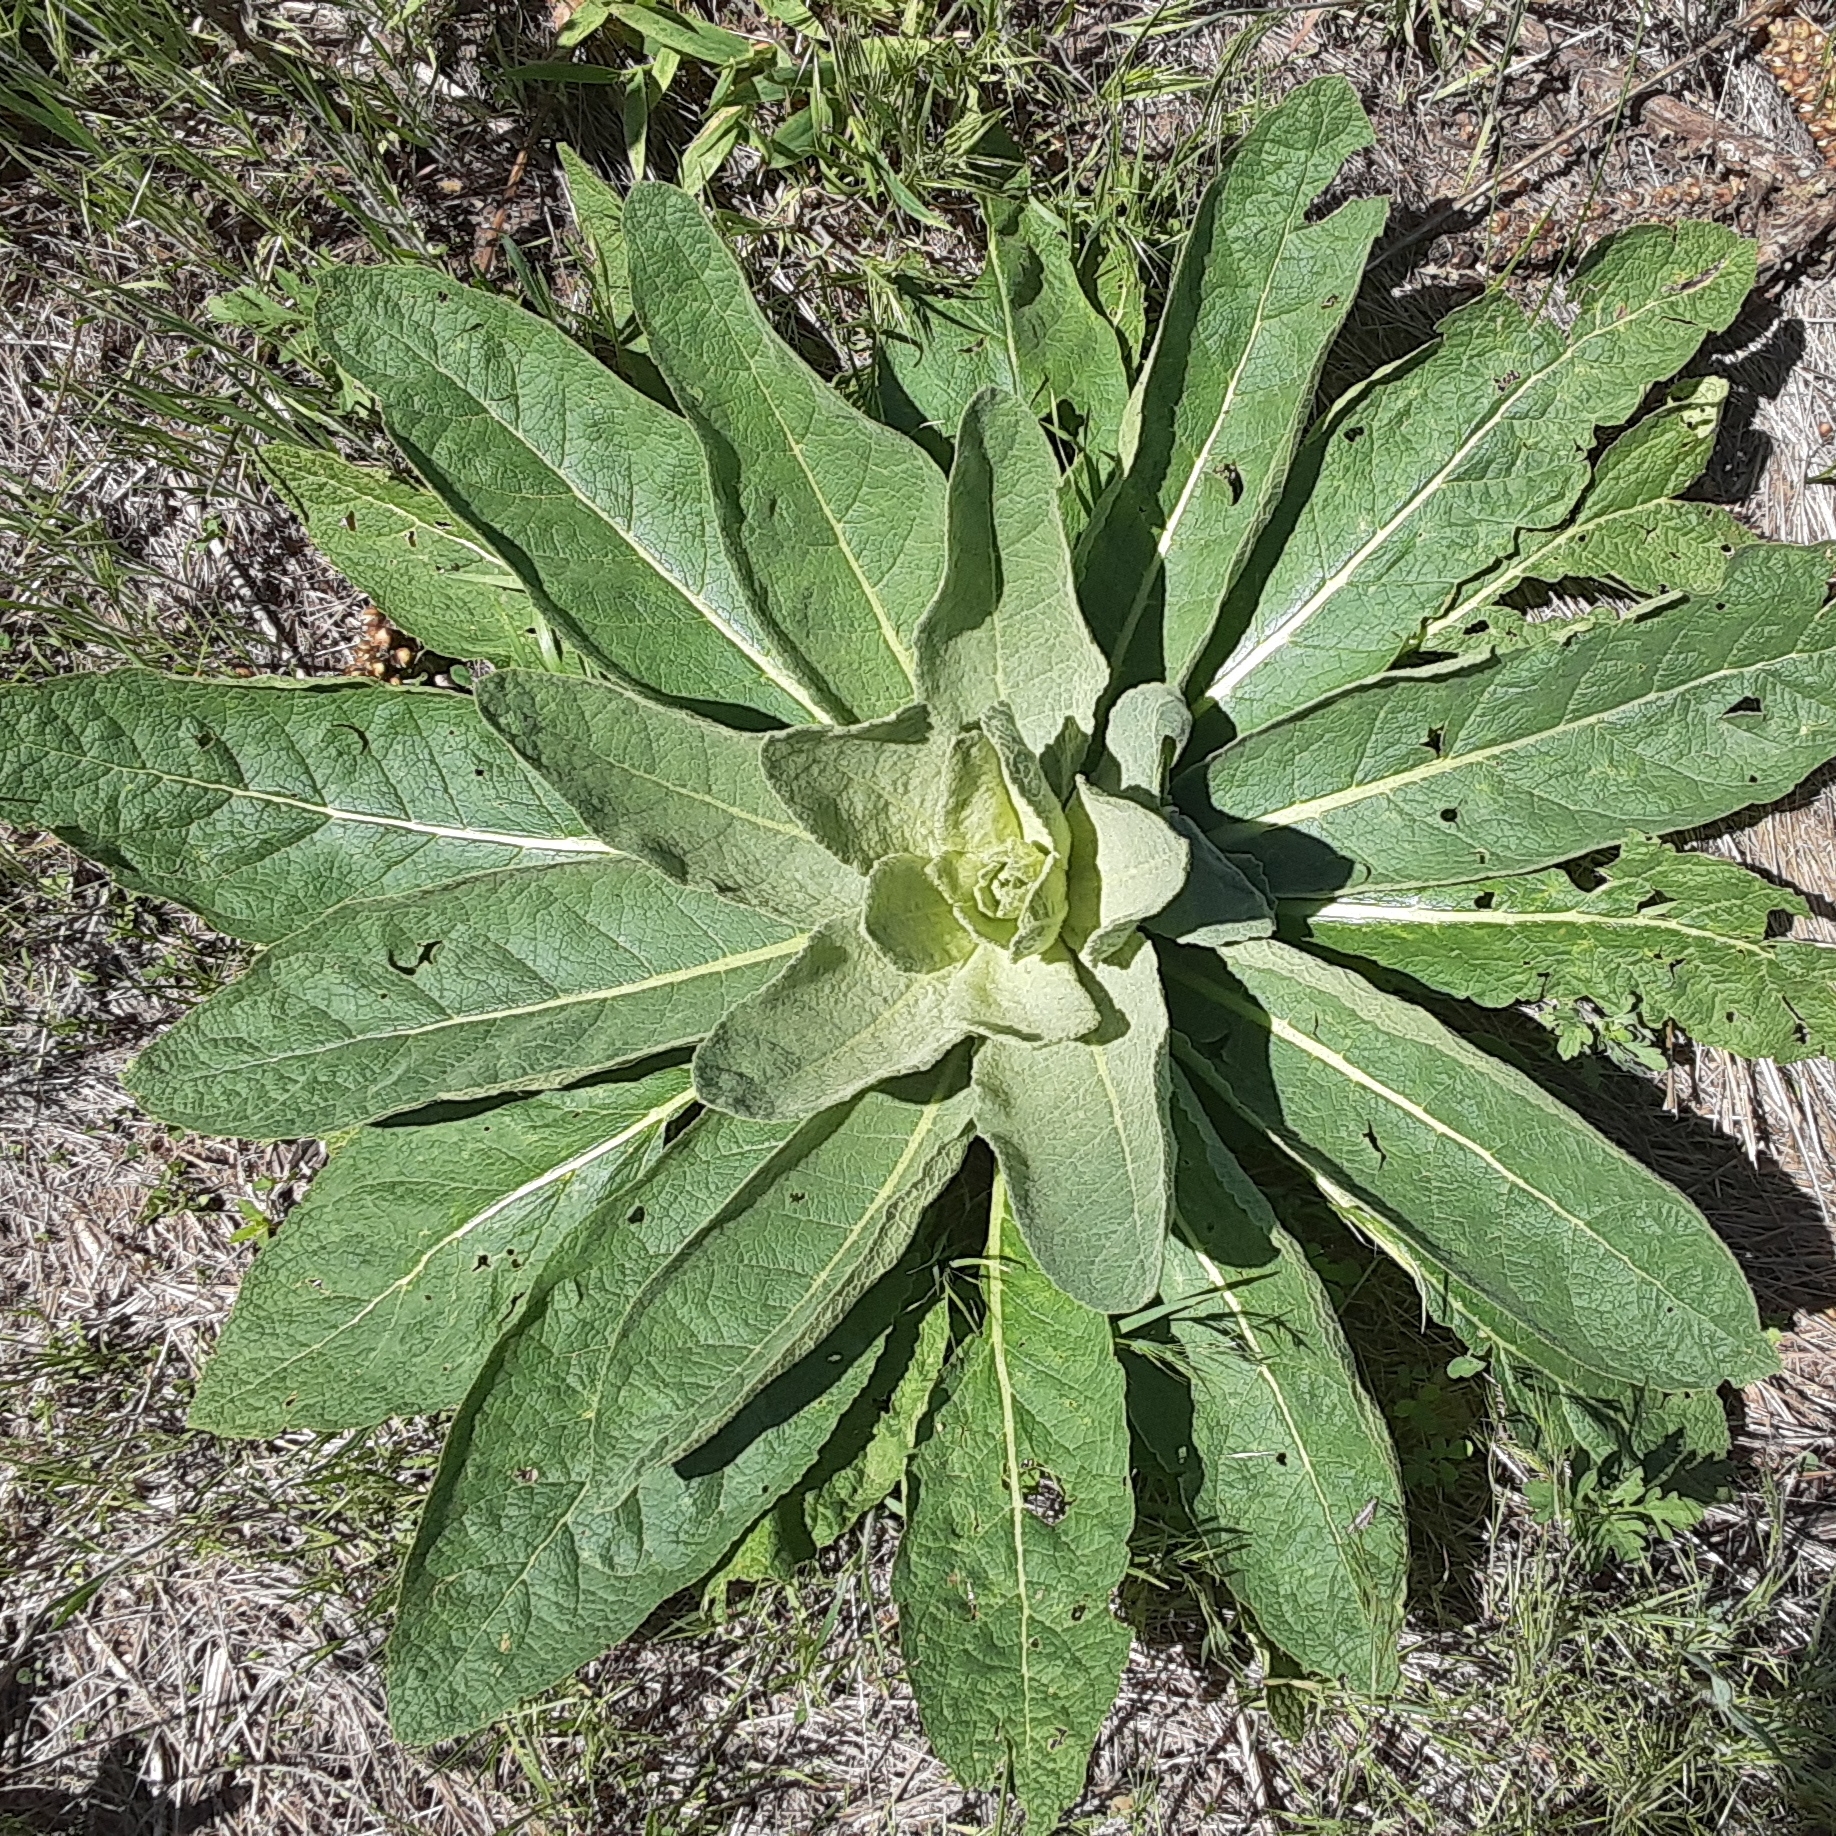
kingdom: Plantae
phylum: Tracheophyta
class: Magnoliopsida
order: Lamiales
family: Scrophulariaceae
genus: Verbascum
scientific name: Verbascum thapsus
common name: Common mullein
